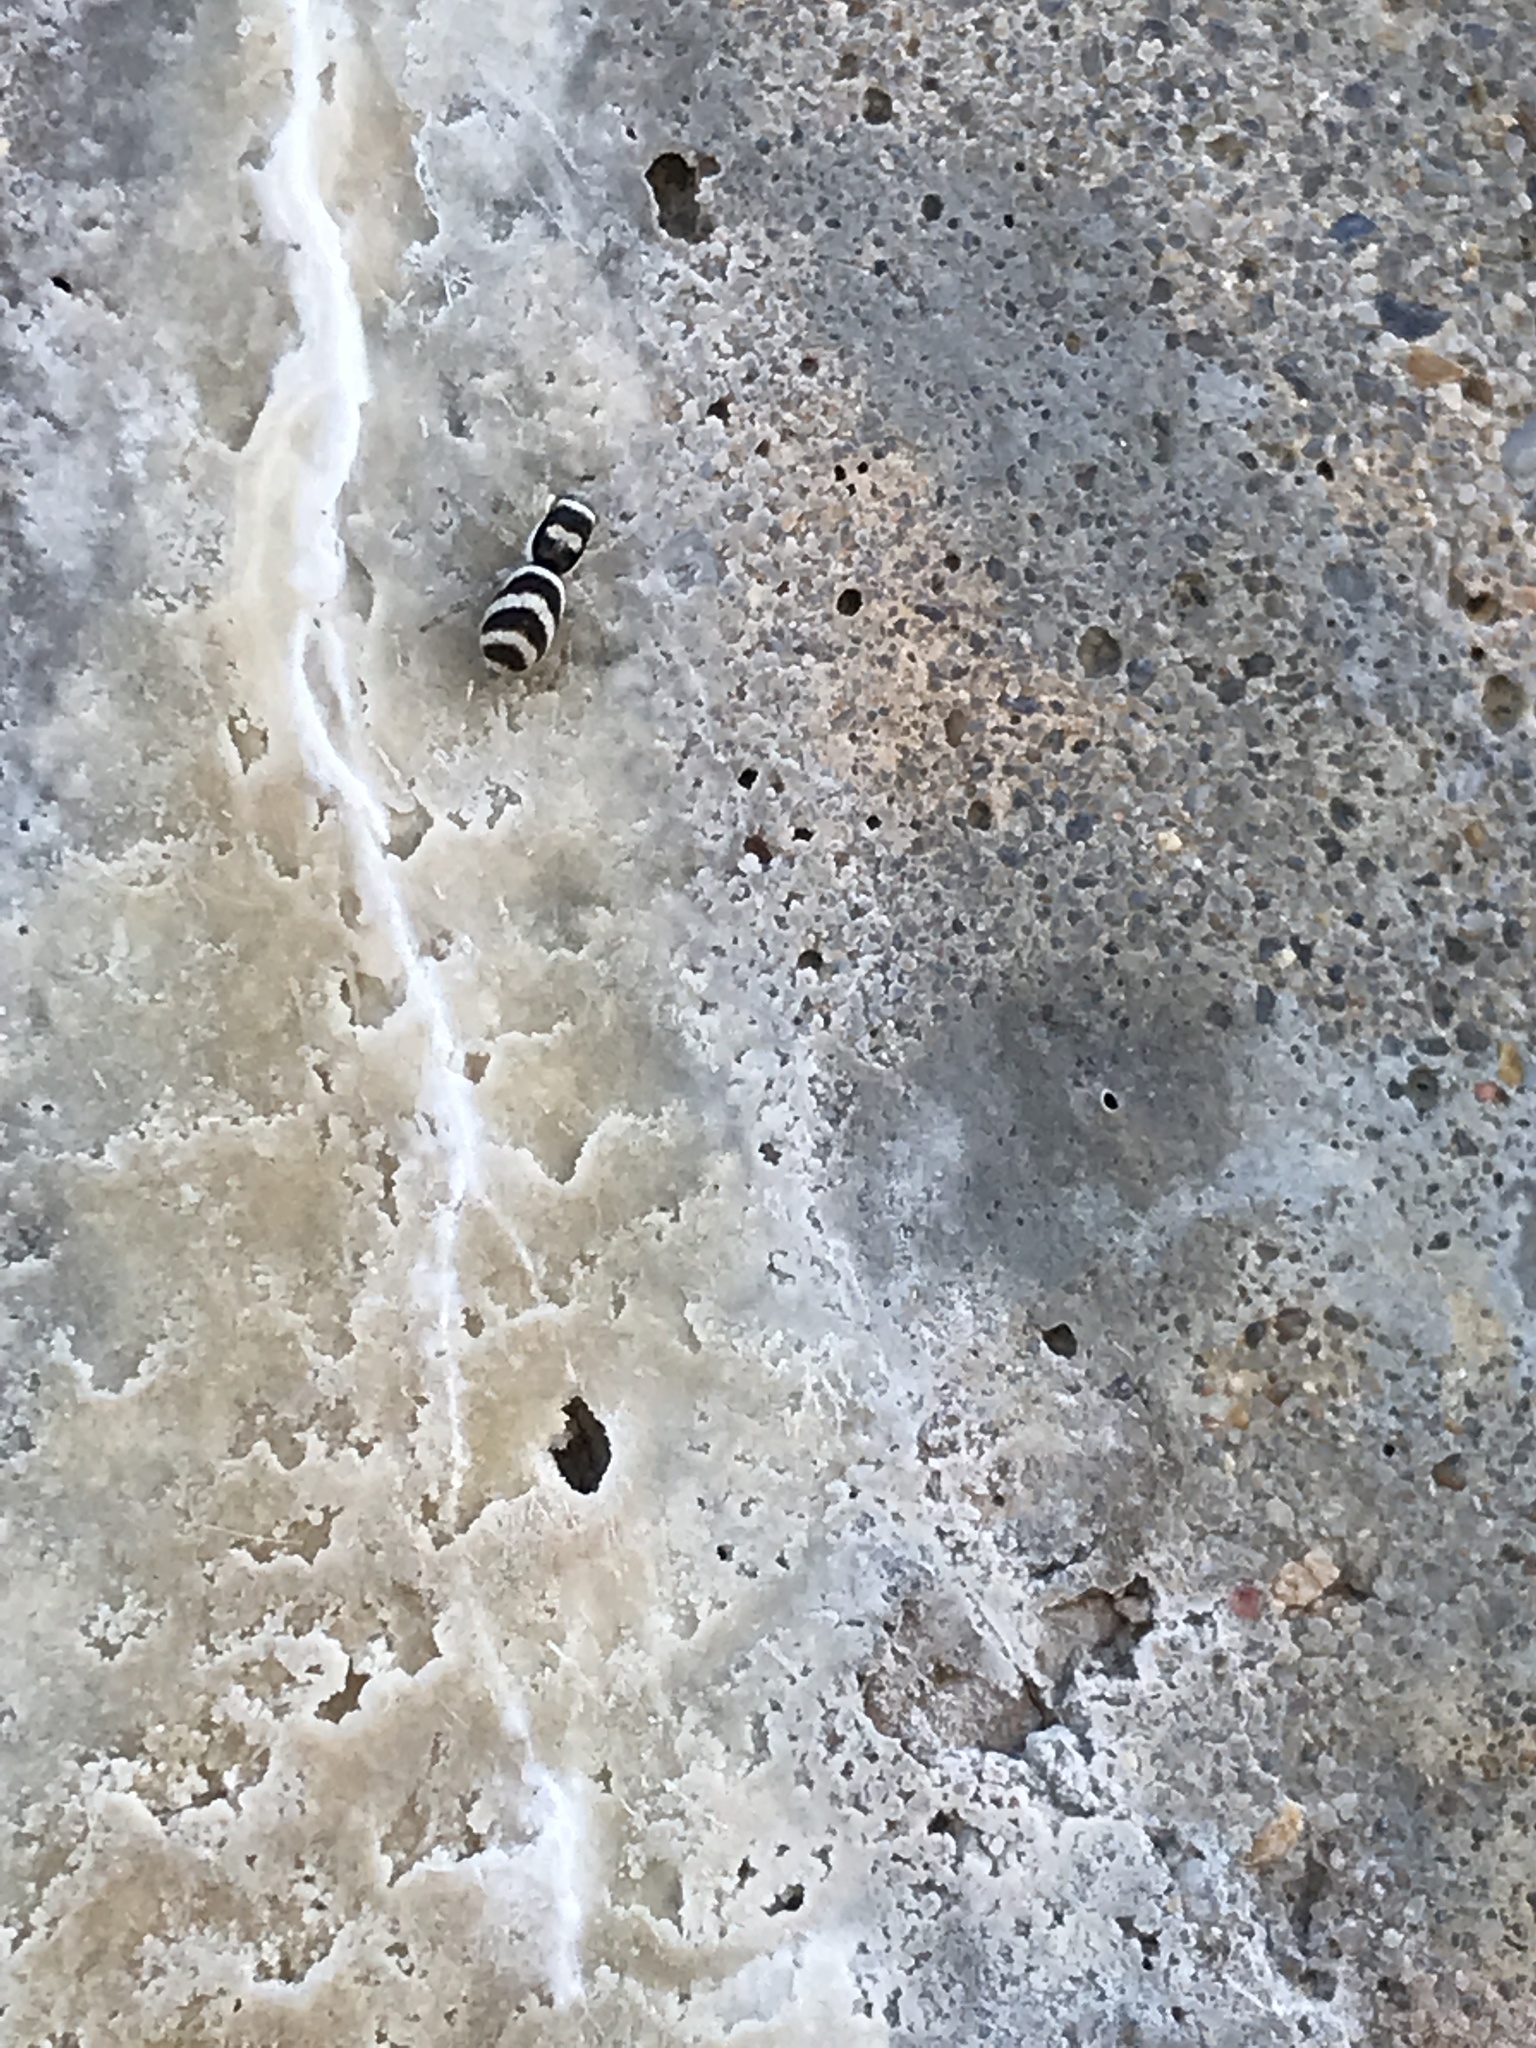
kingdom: Animalia
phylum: Arthropoda
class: Arachnida
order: Araneae
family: Salticidae
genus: Salticus
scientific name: Salticus austinensis
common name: Jumping spiders
